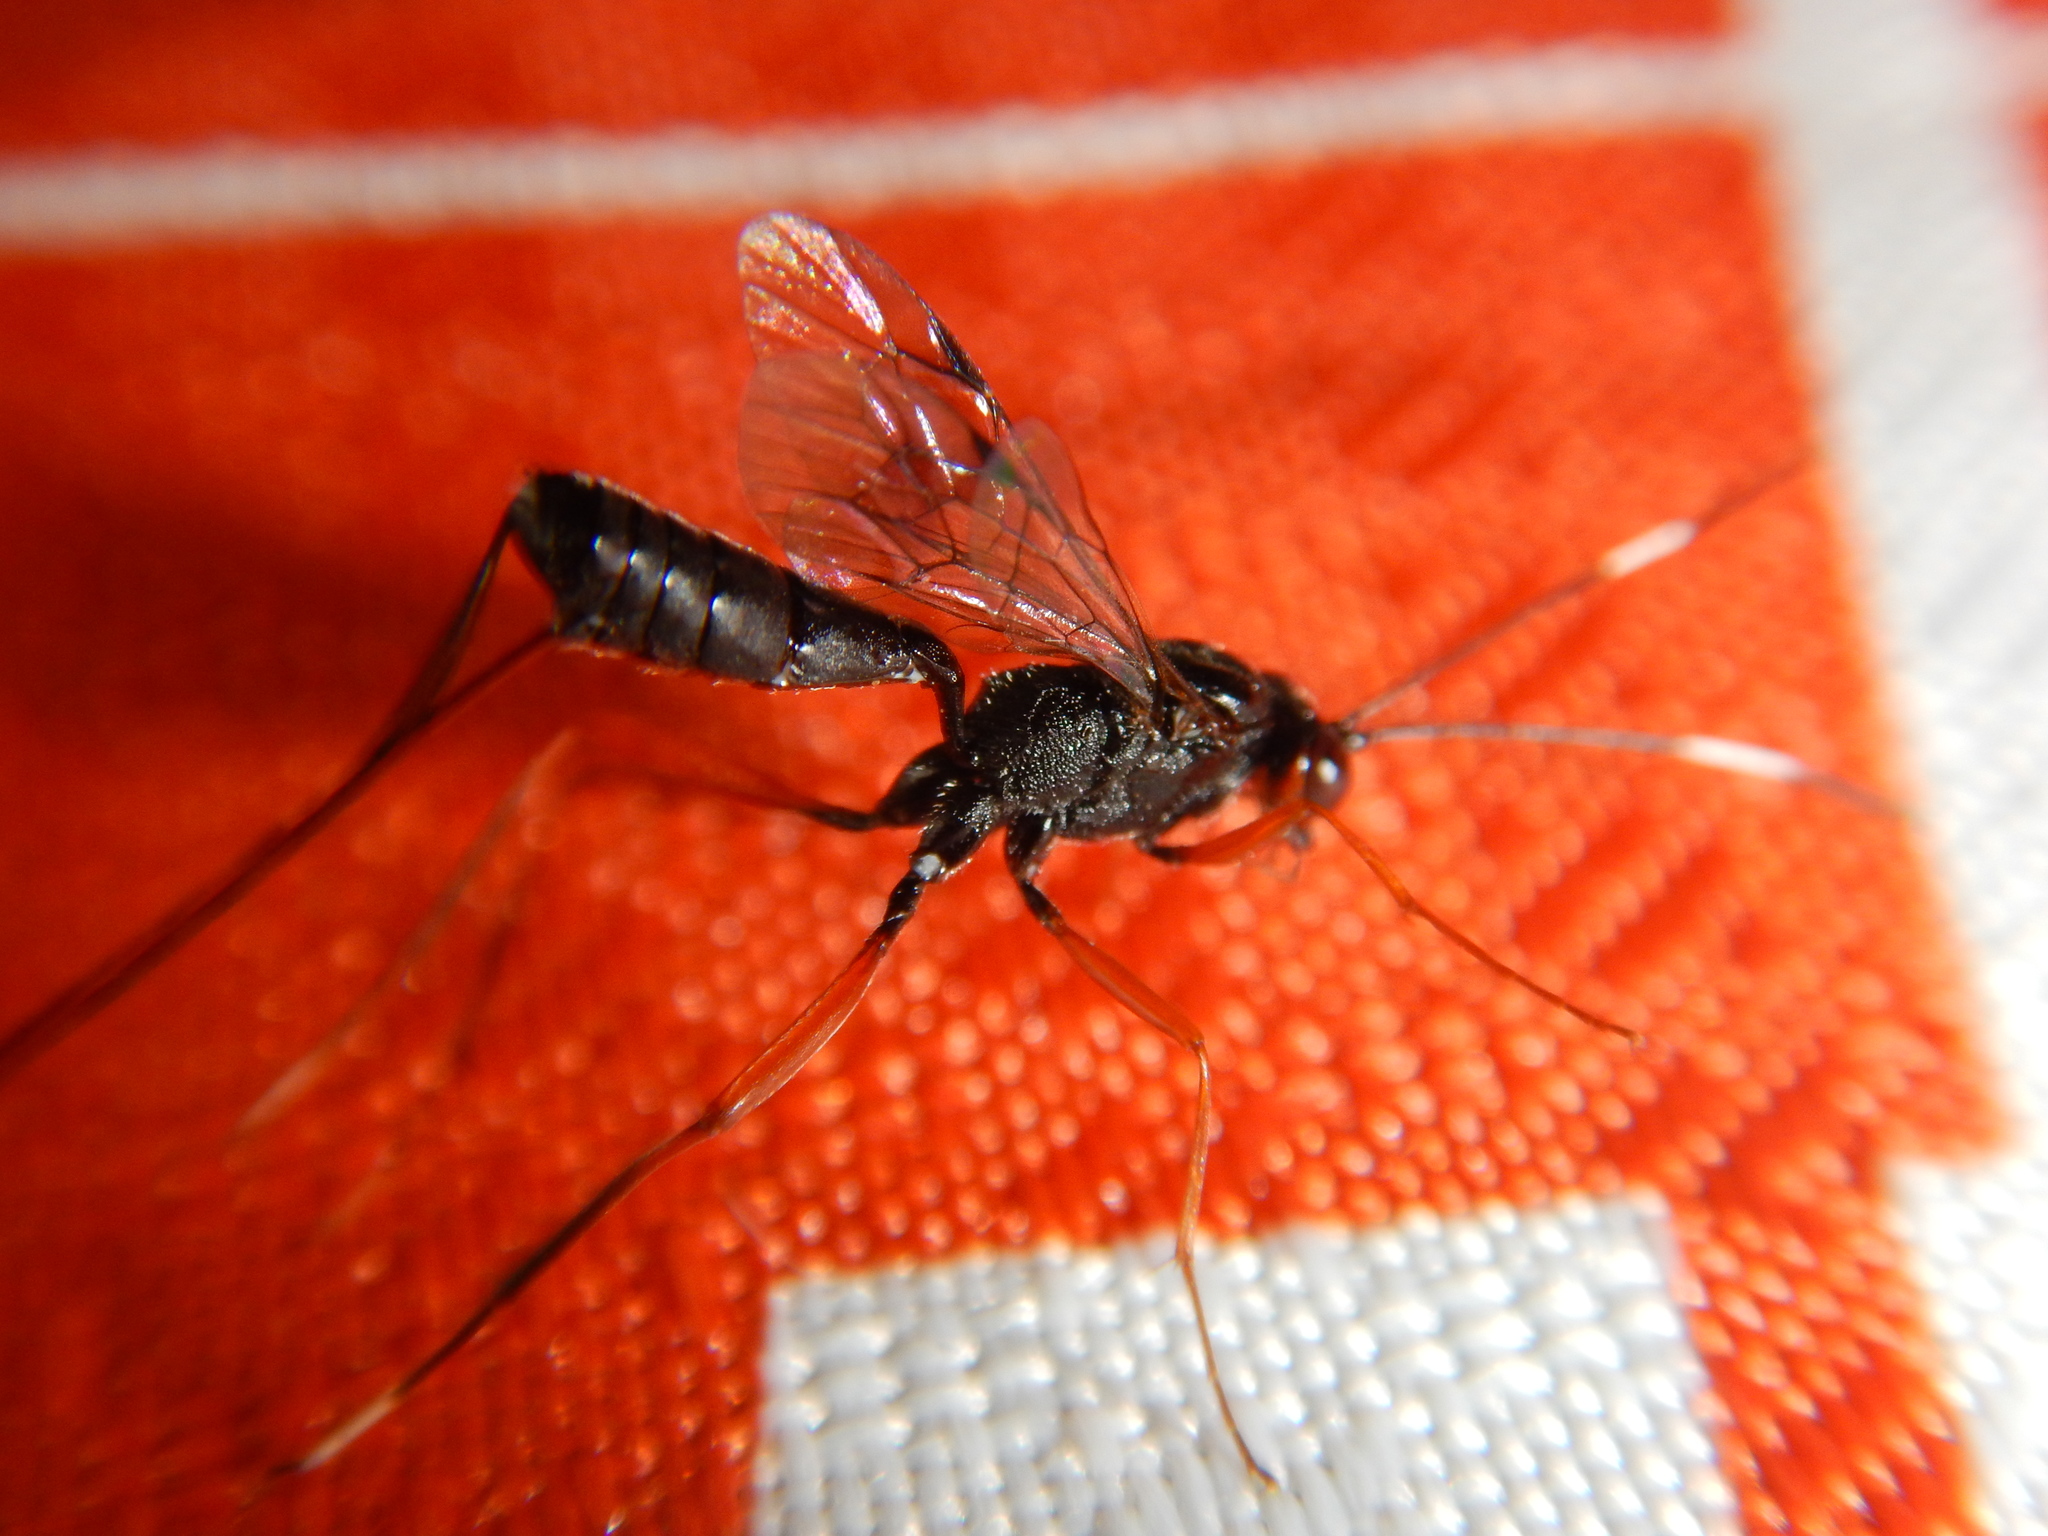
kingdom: Animalia
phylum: Arthropoda
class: Insecta
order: Hymenoptera
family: Ichneumonidae
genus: Stenarella
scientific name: Stenarella domator
